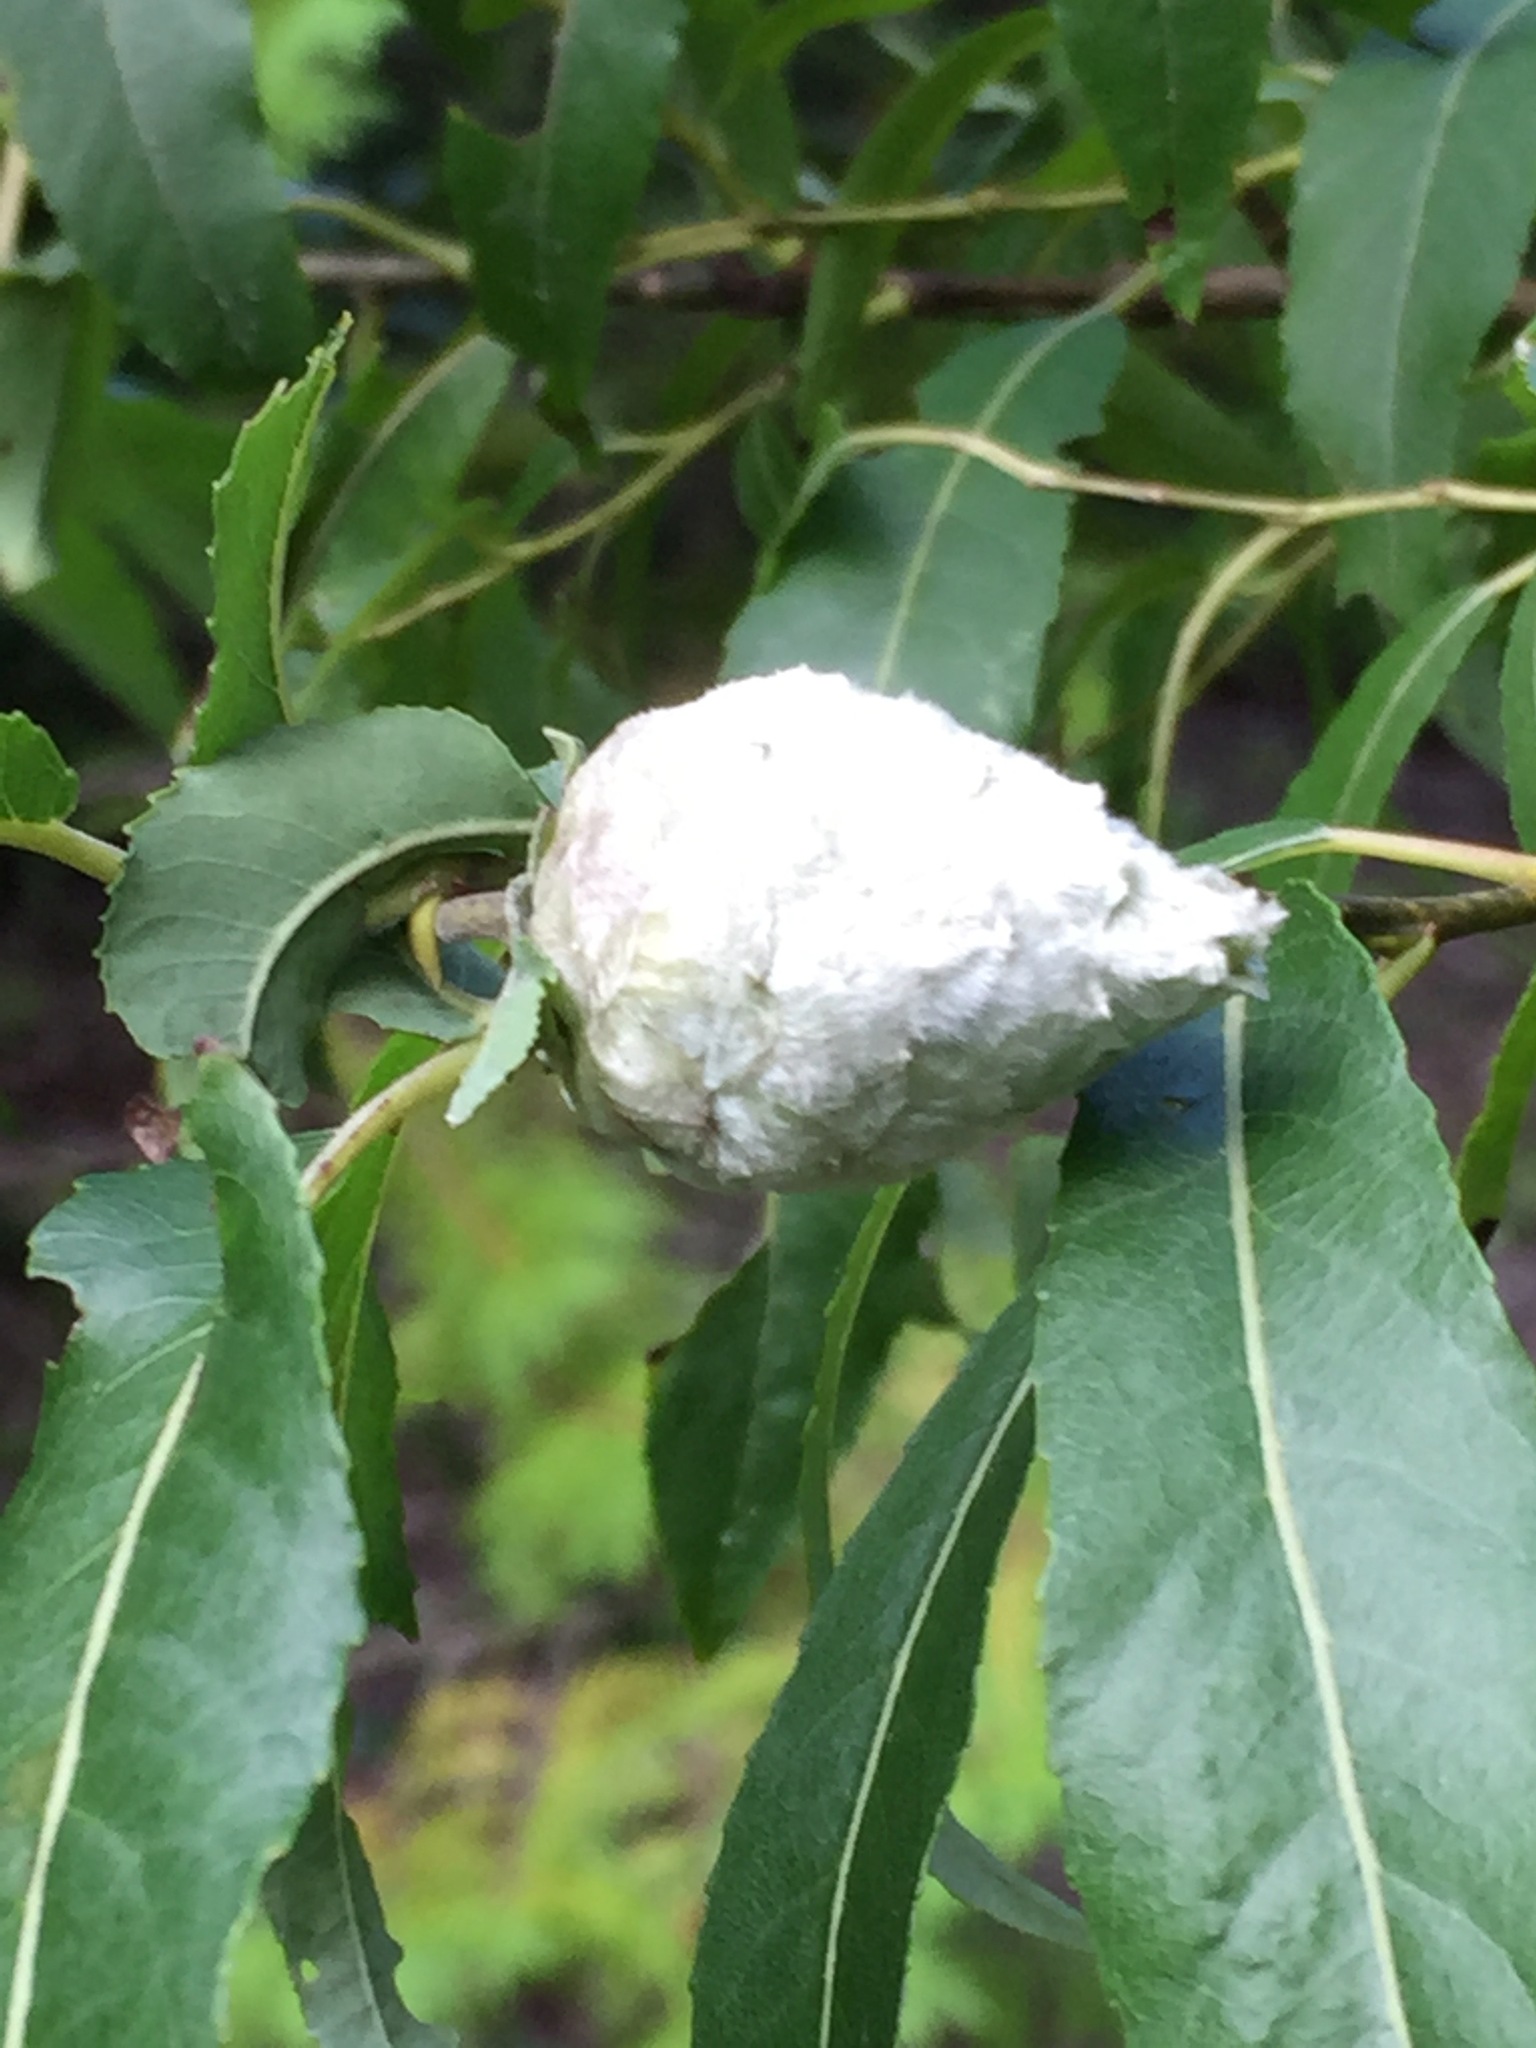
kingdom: Animalia
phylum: Arthropoda
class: Insecta
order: Diptera
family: Cecidomyiidae
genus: Rabdophaga
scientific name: Rabdophaga strobiloides
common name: Willow pinecone gall midge
